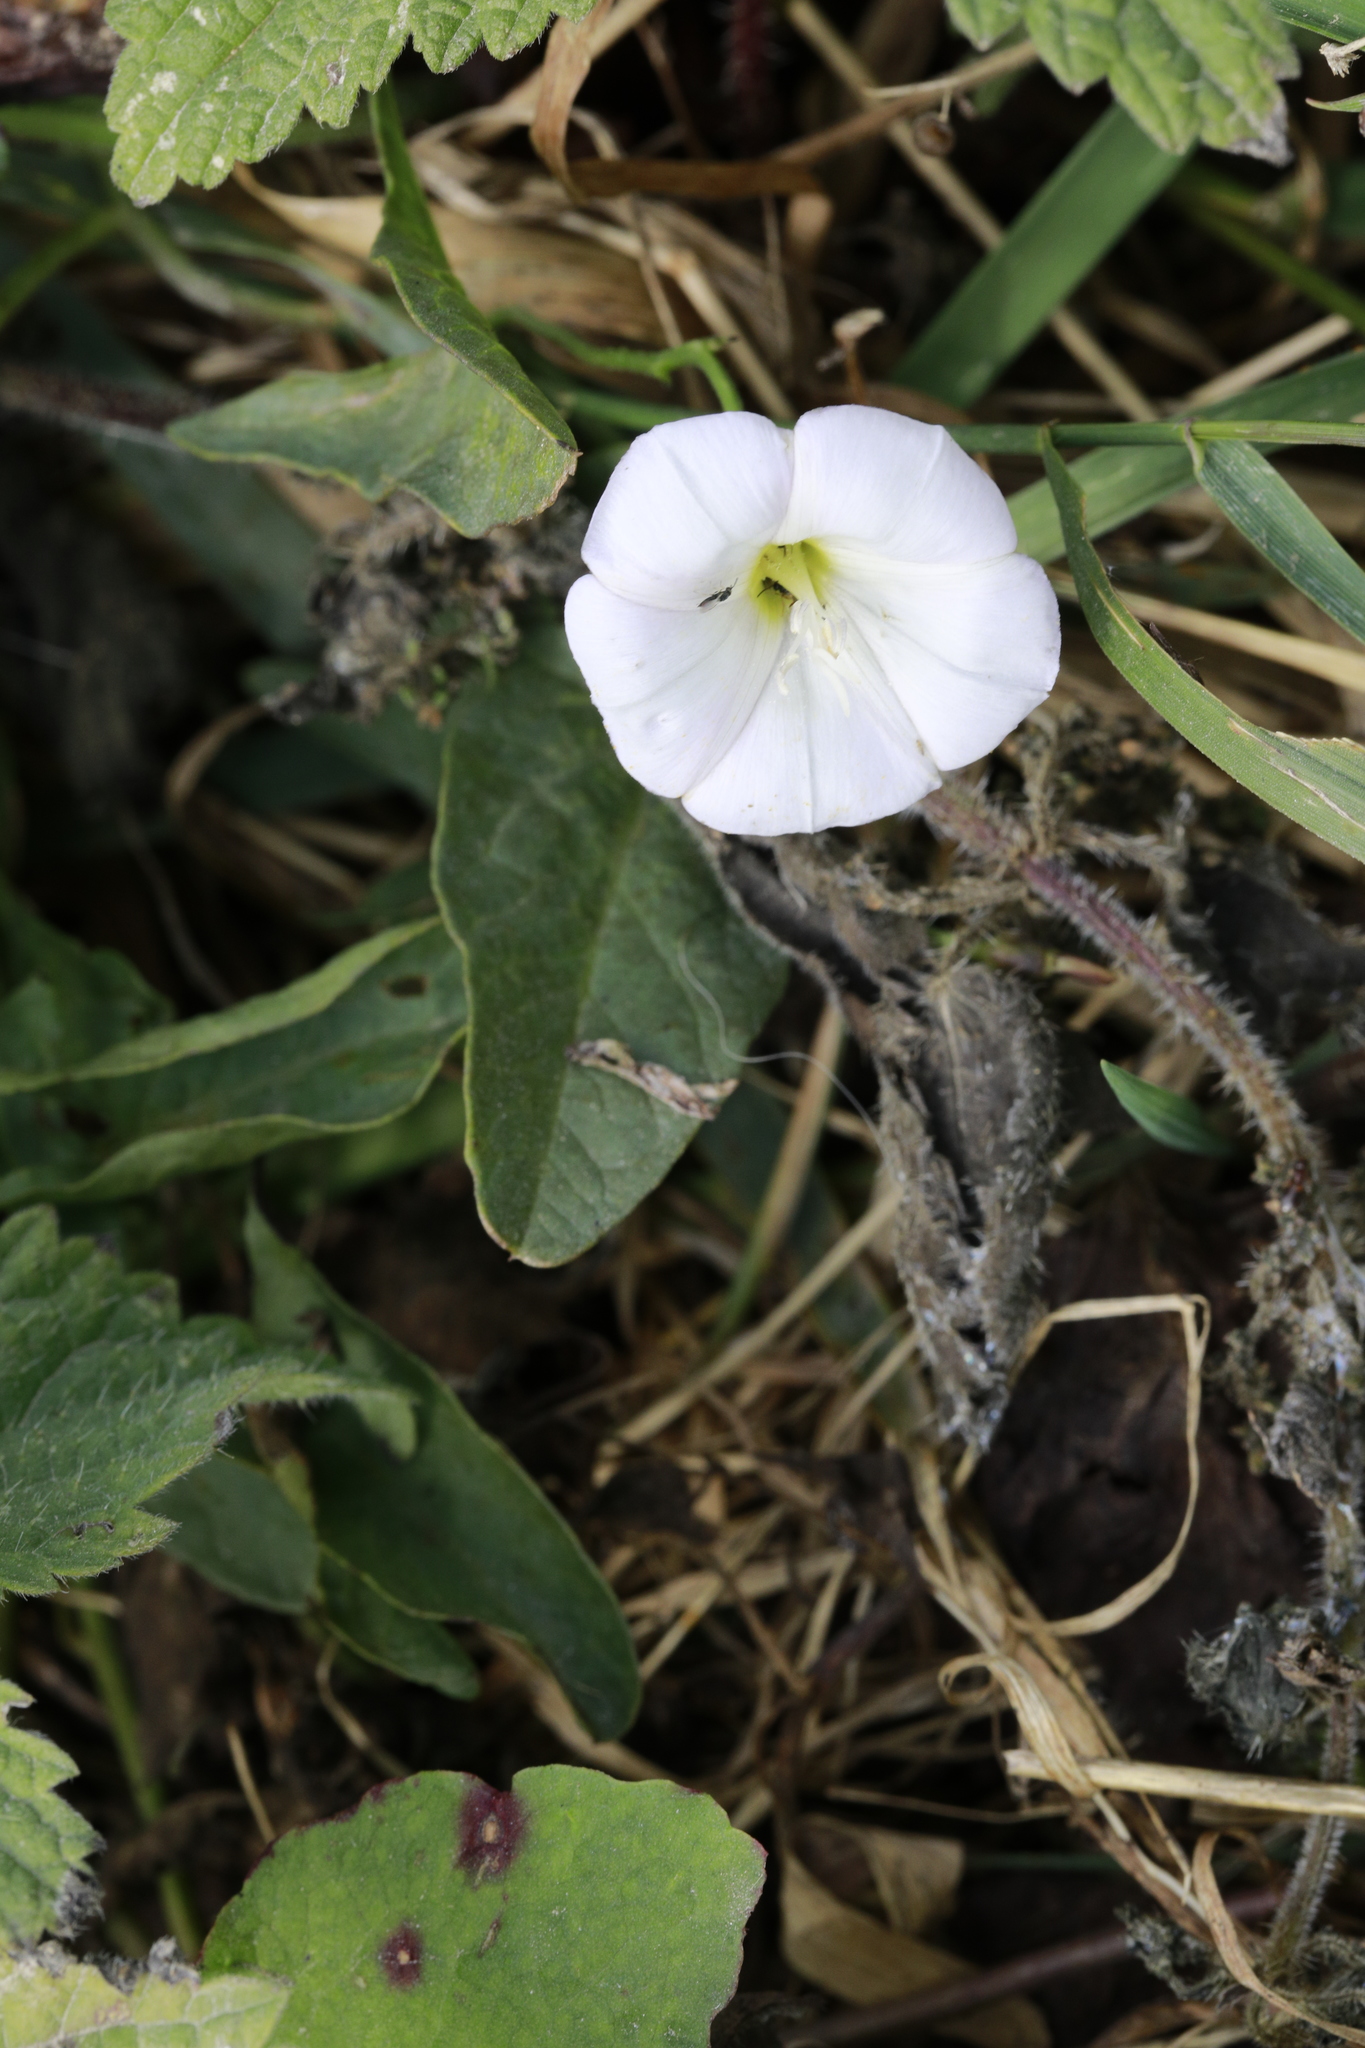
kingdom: Plantae
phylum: Tracheophyta
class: Magnoliopsida
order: Solanales
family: Convolvulaceae
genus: Convolvulus
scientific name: Convolvulus arvensis
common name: Field bindweed
